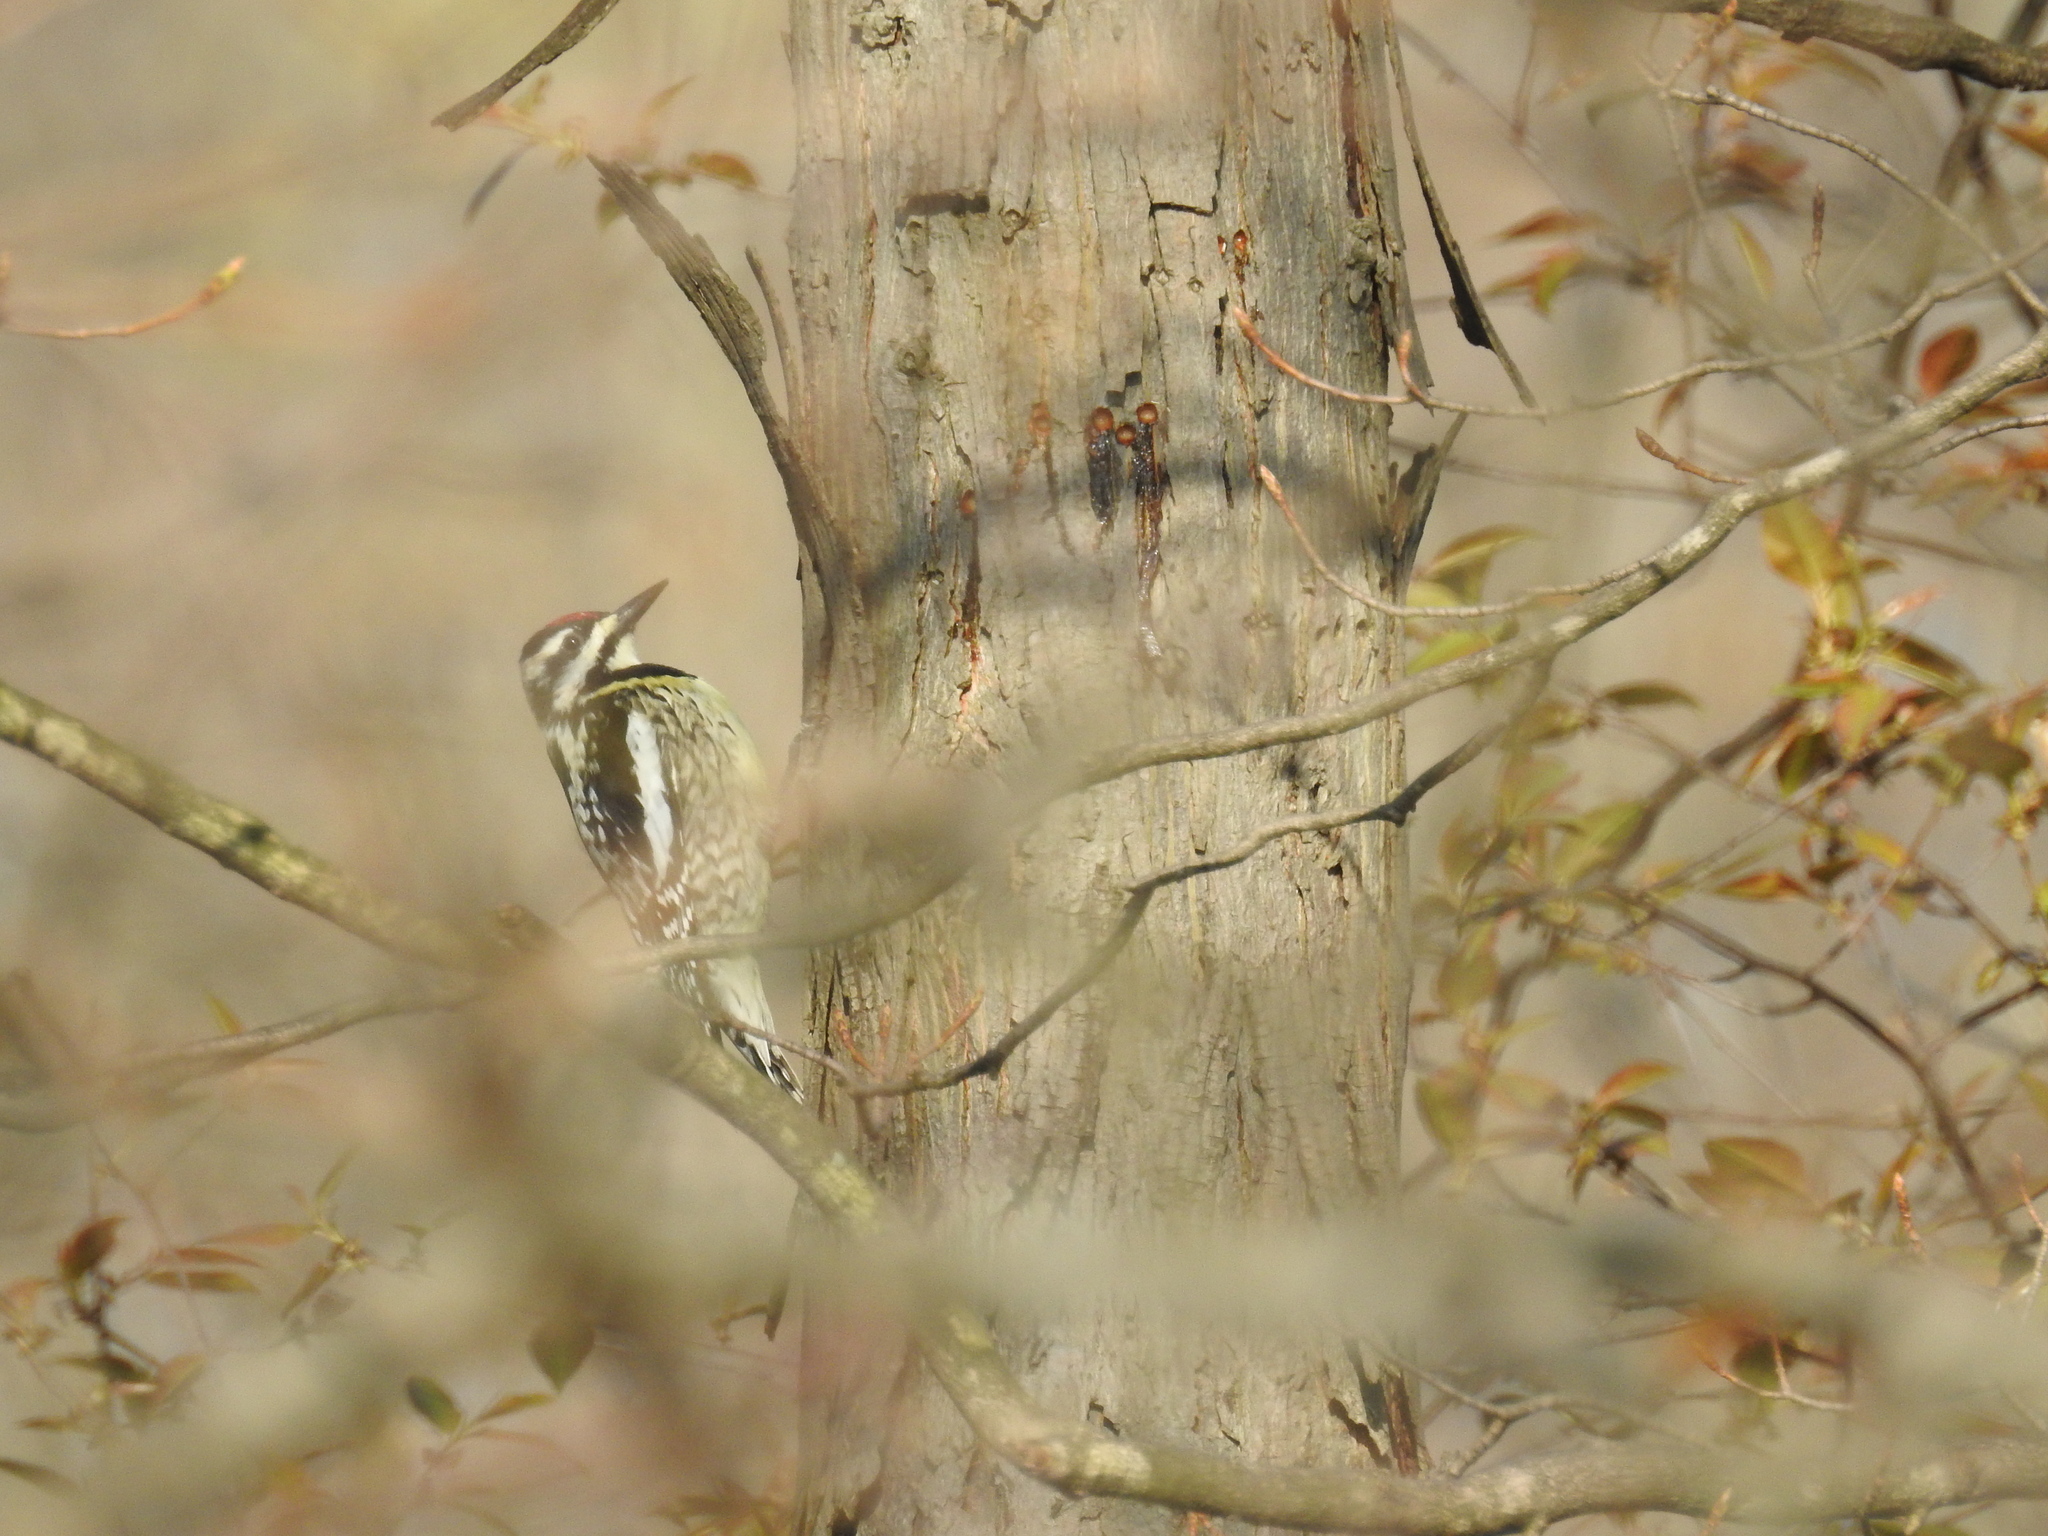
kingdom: Animalia
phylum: Chordata
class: Aves
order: Piciformes
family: Picidae
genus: Sphyrapicus
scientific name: Sphyrapicus varius
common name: Yellow-bellied sapsucker
